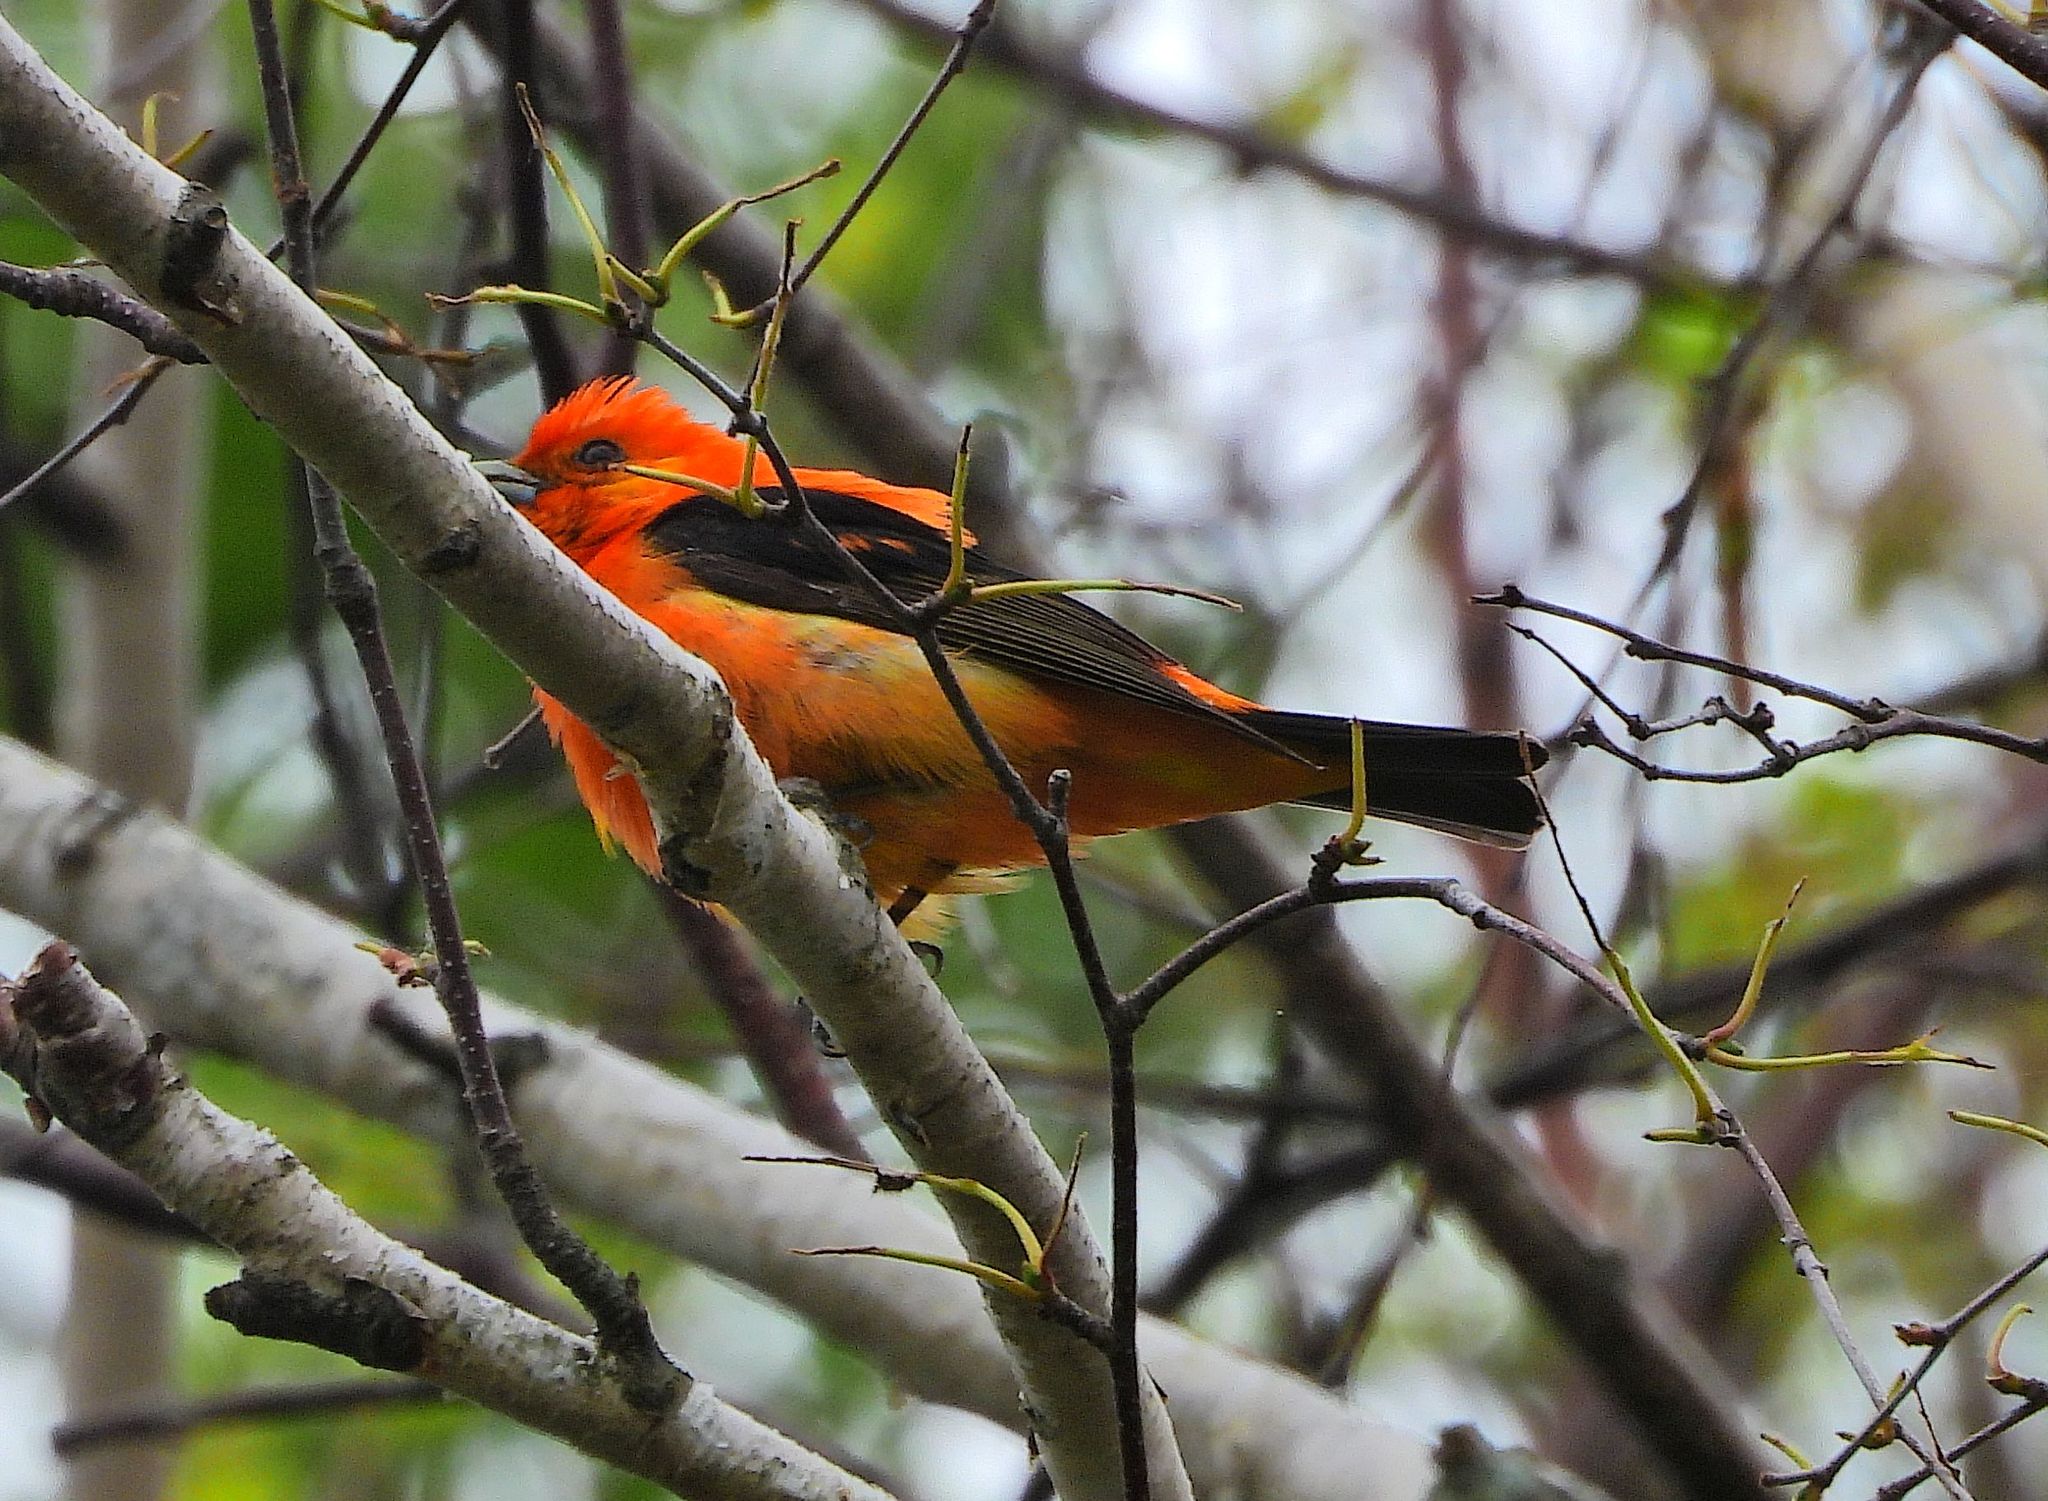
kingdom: Animalia
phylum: Chordata
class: Aves
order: Passeriformes
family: Cardinalidae
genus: Piranga
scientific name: Piranga olivacea
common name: Scarlet tanager
